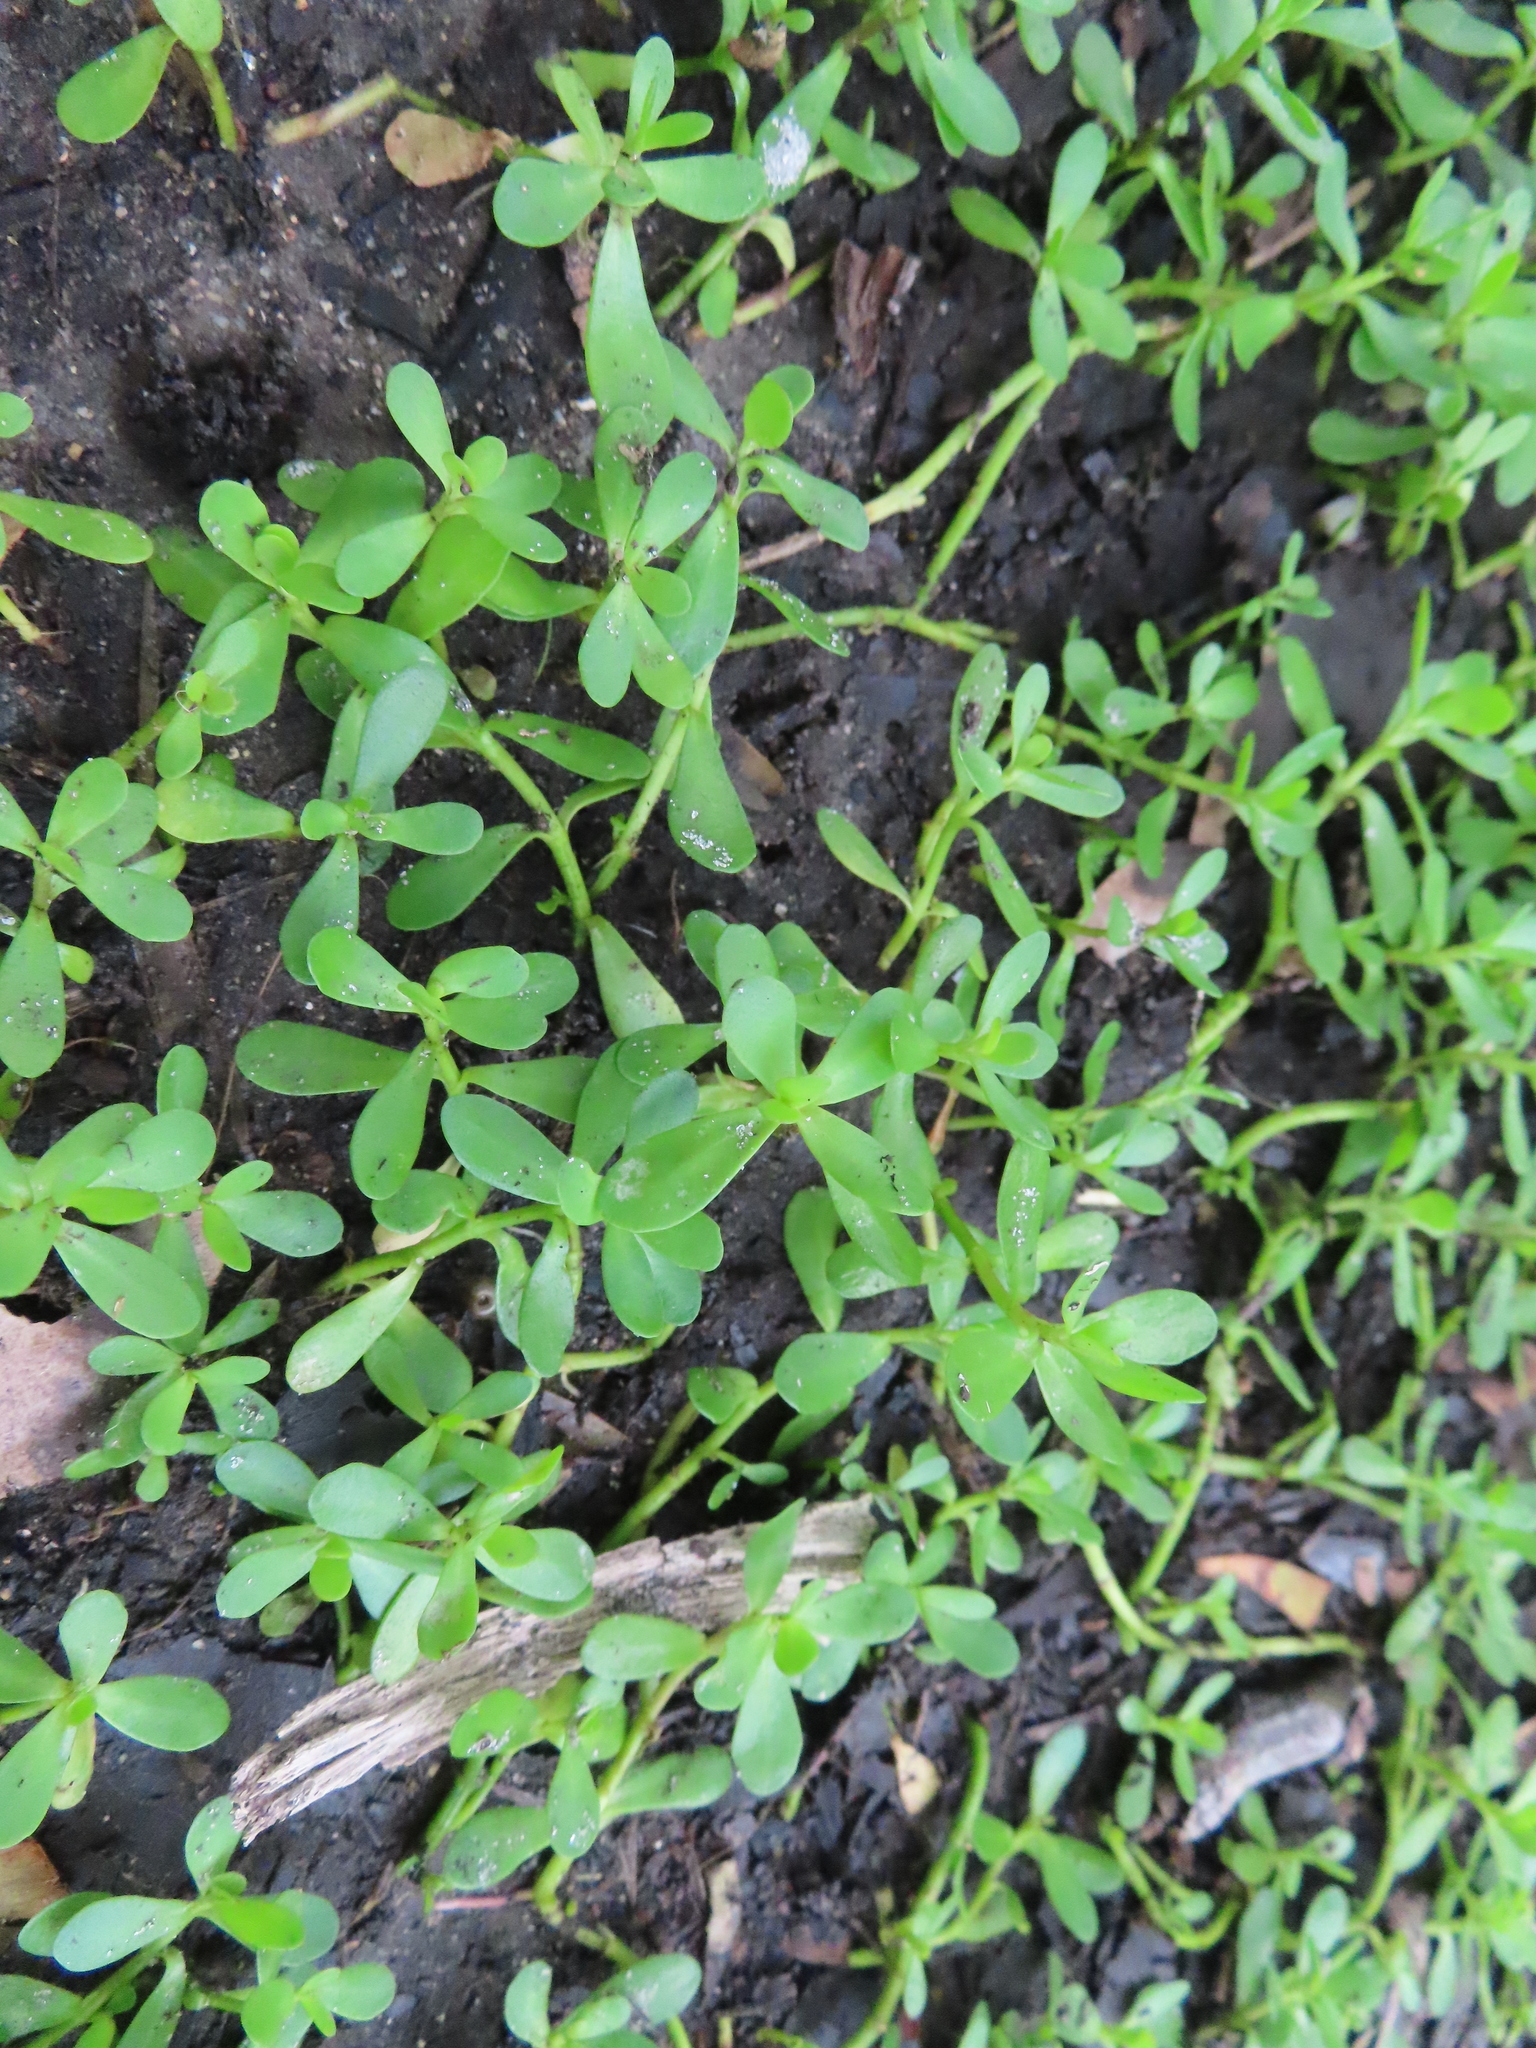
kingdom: Plantae
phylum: Tracheophyta
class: Magnoliopsida
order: Lamiales
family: Plantaginaceae
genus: Bacopa
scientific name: Bacopa monnieri
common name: Indian-pennywort
